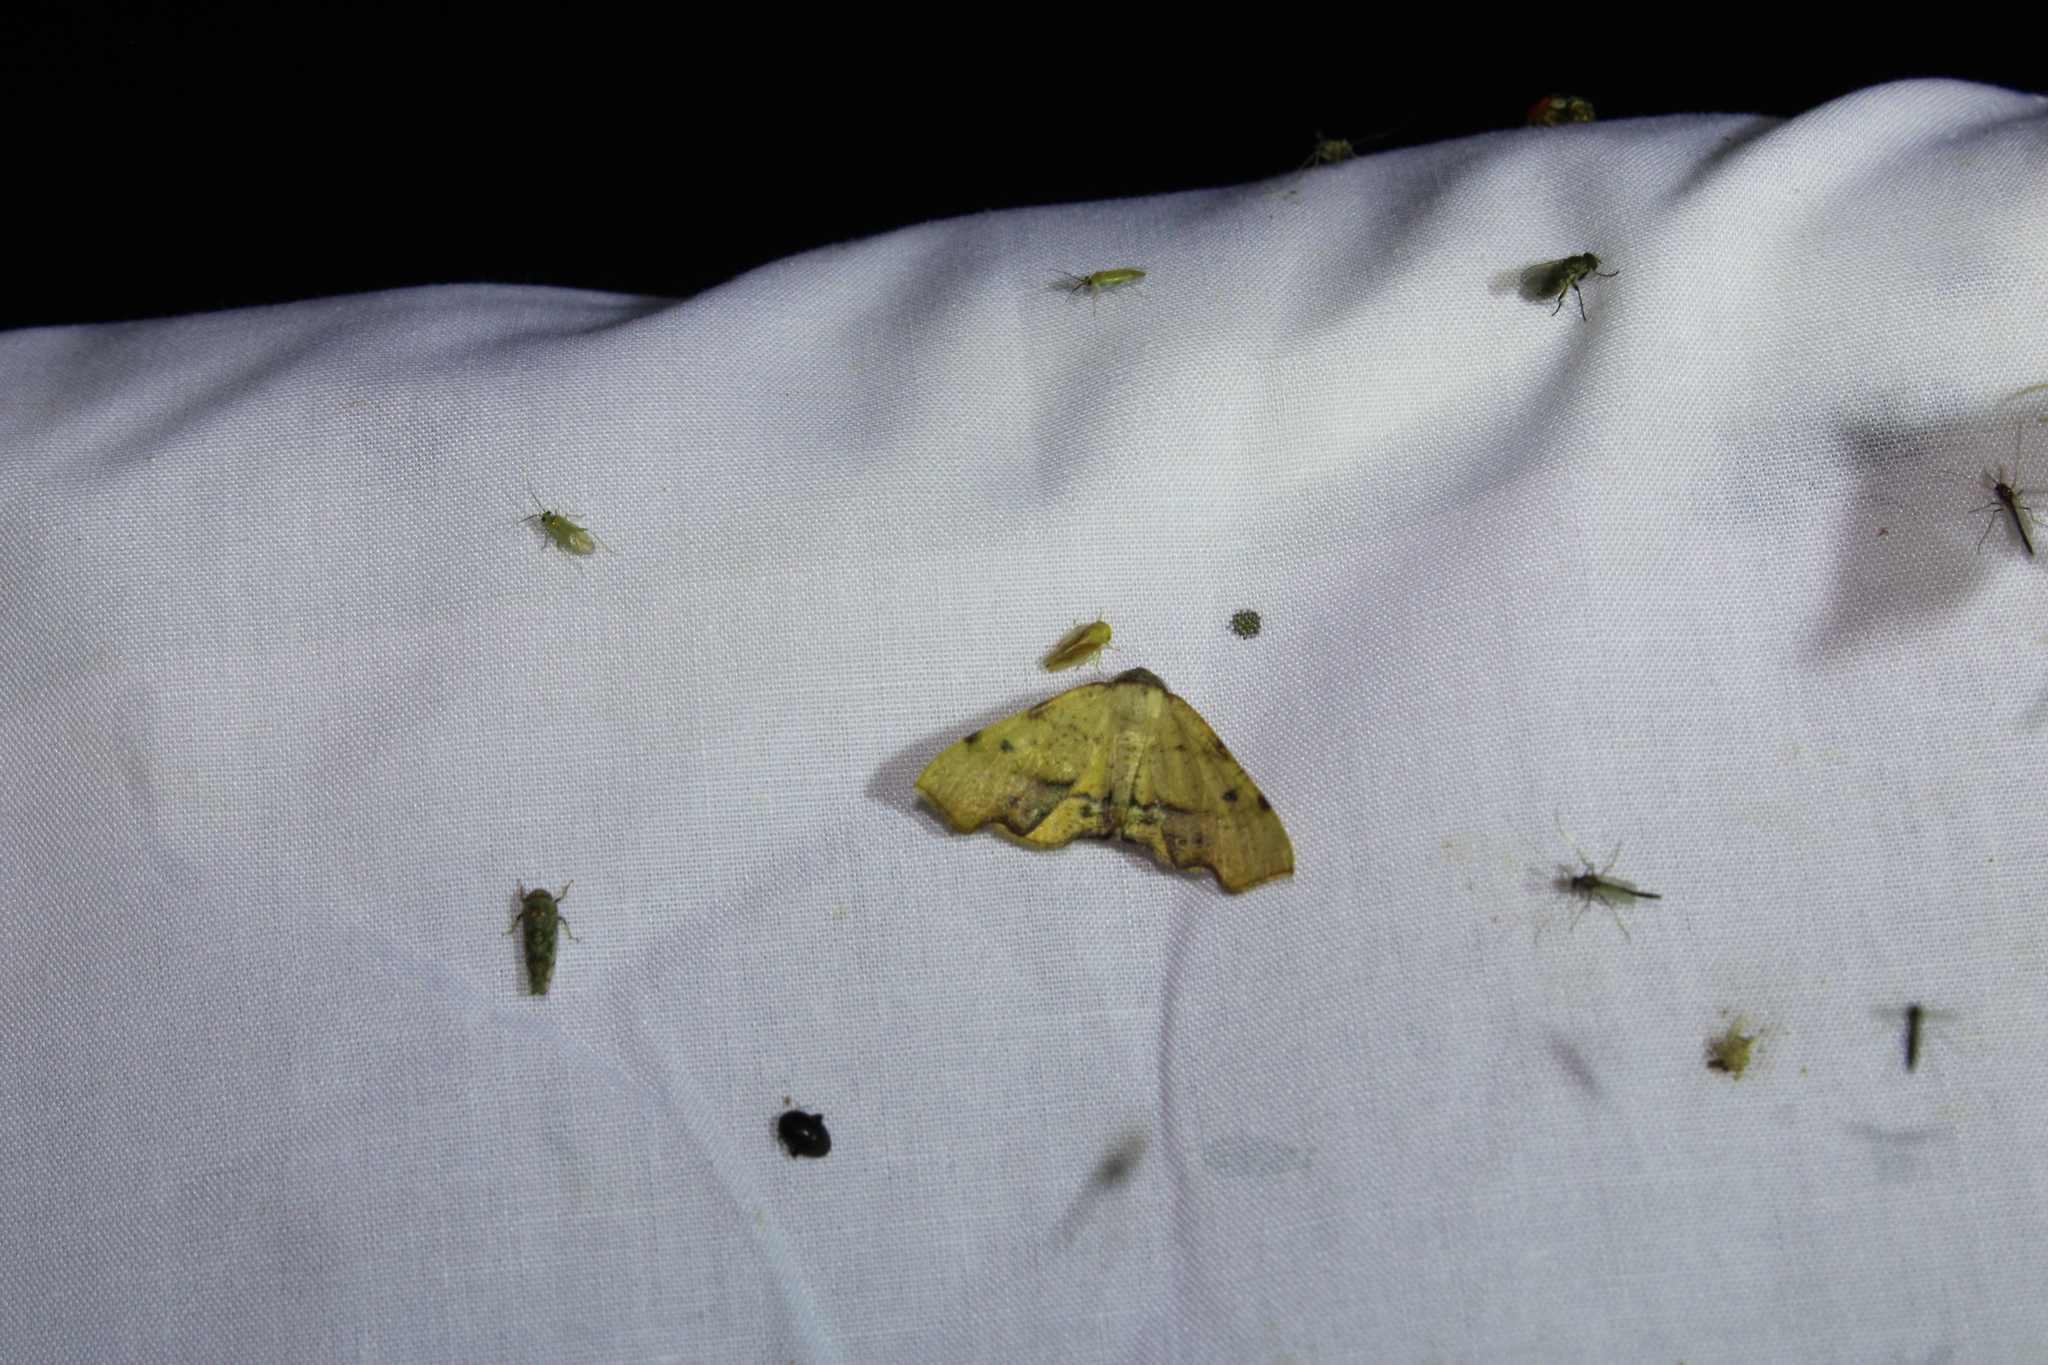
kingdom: Animalia
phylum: Arthropoda
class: Insecta
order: Lepidoptera
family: Geometridae
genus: Plagodis
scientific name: Plagodis fervidaria
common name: Fervid plagodis
